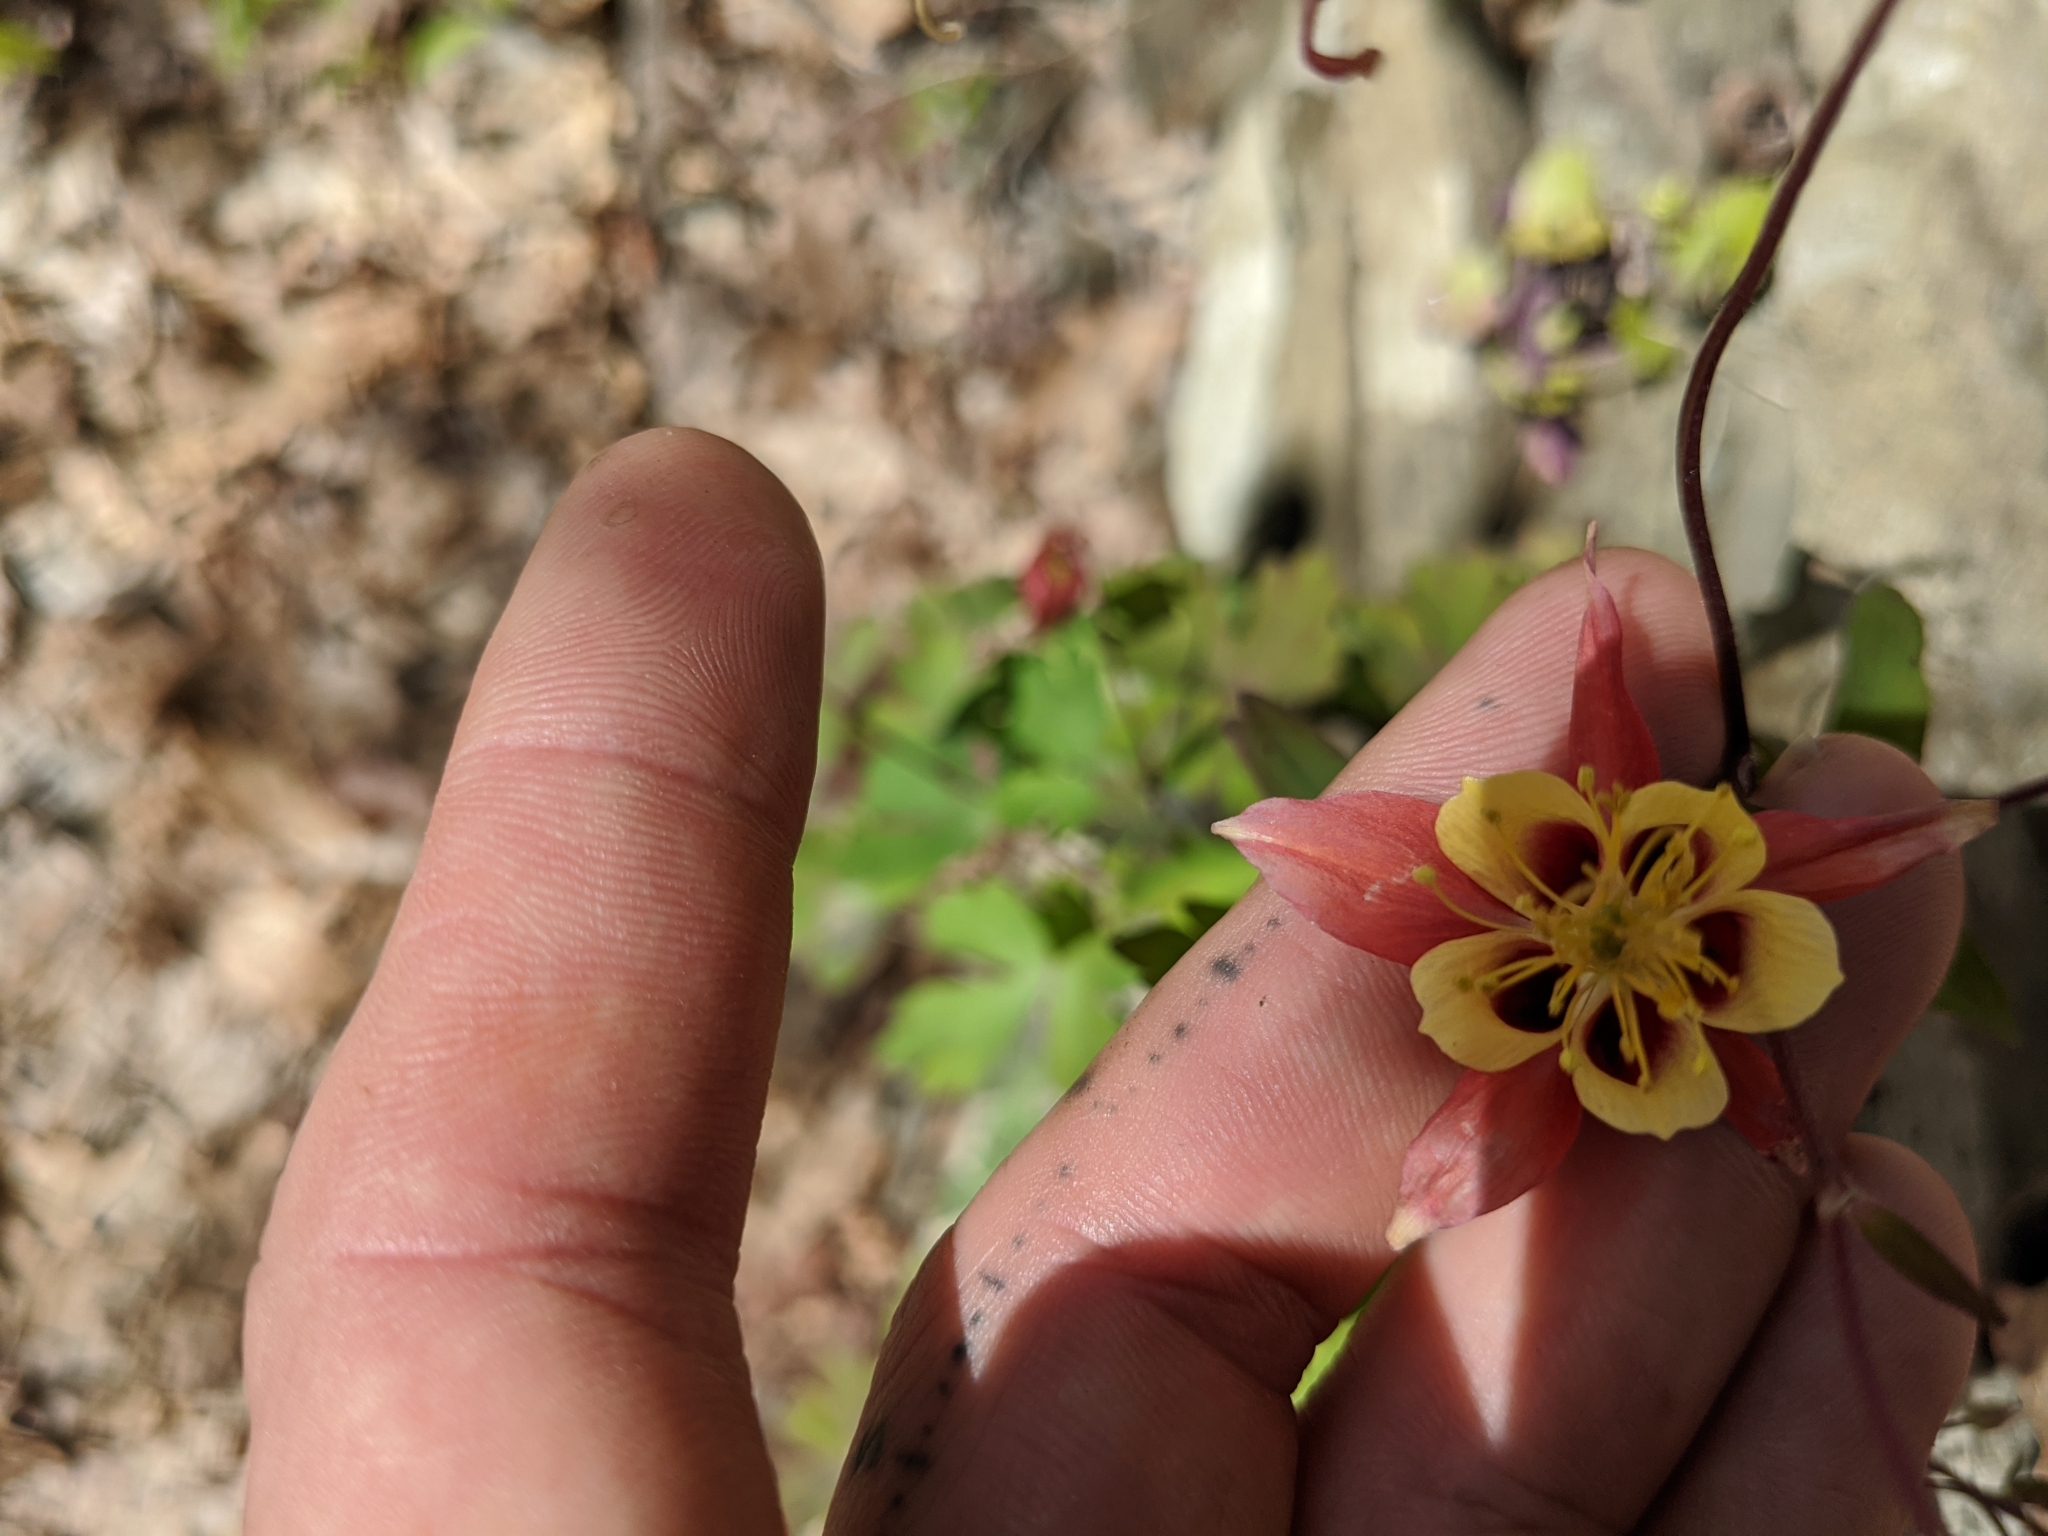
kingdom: Plantae
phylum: Tracheophyta
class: Magnoliopsida
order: Ranunculales
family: Ranunculaceae
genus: Aquilegia
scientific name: Aquilegia canadensis
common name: American columbine
